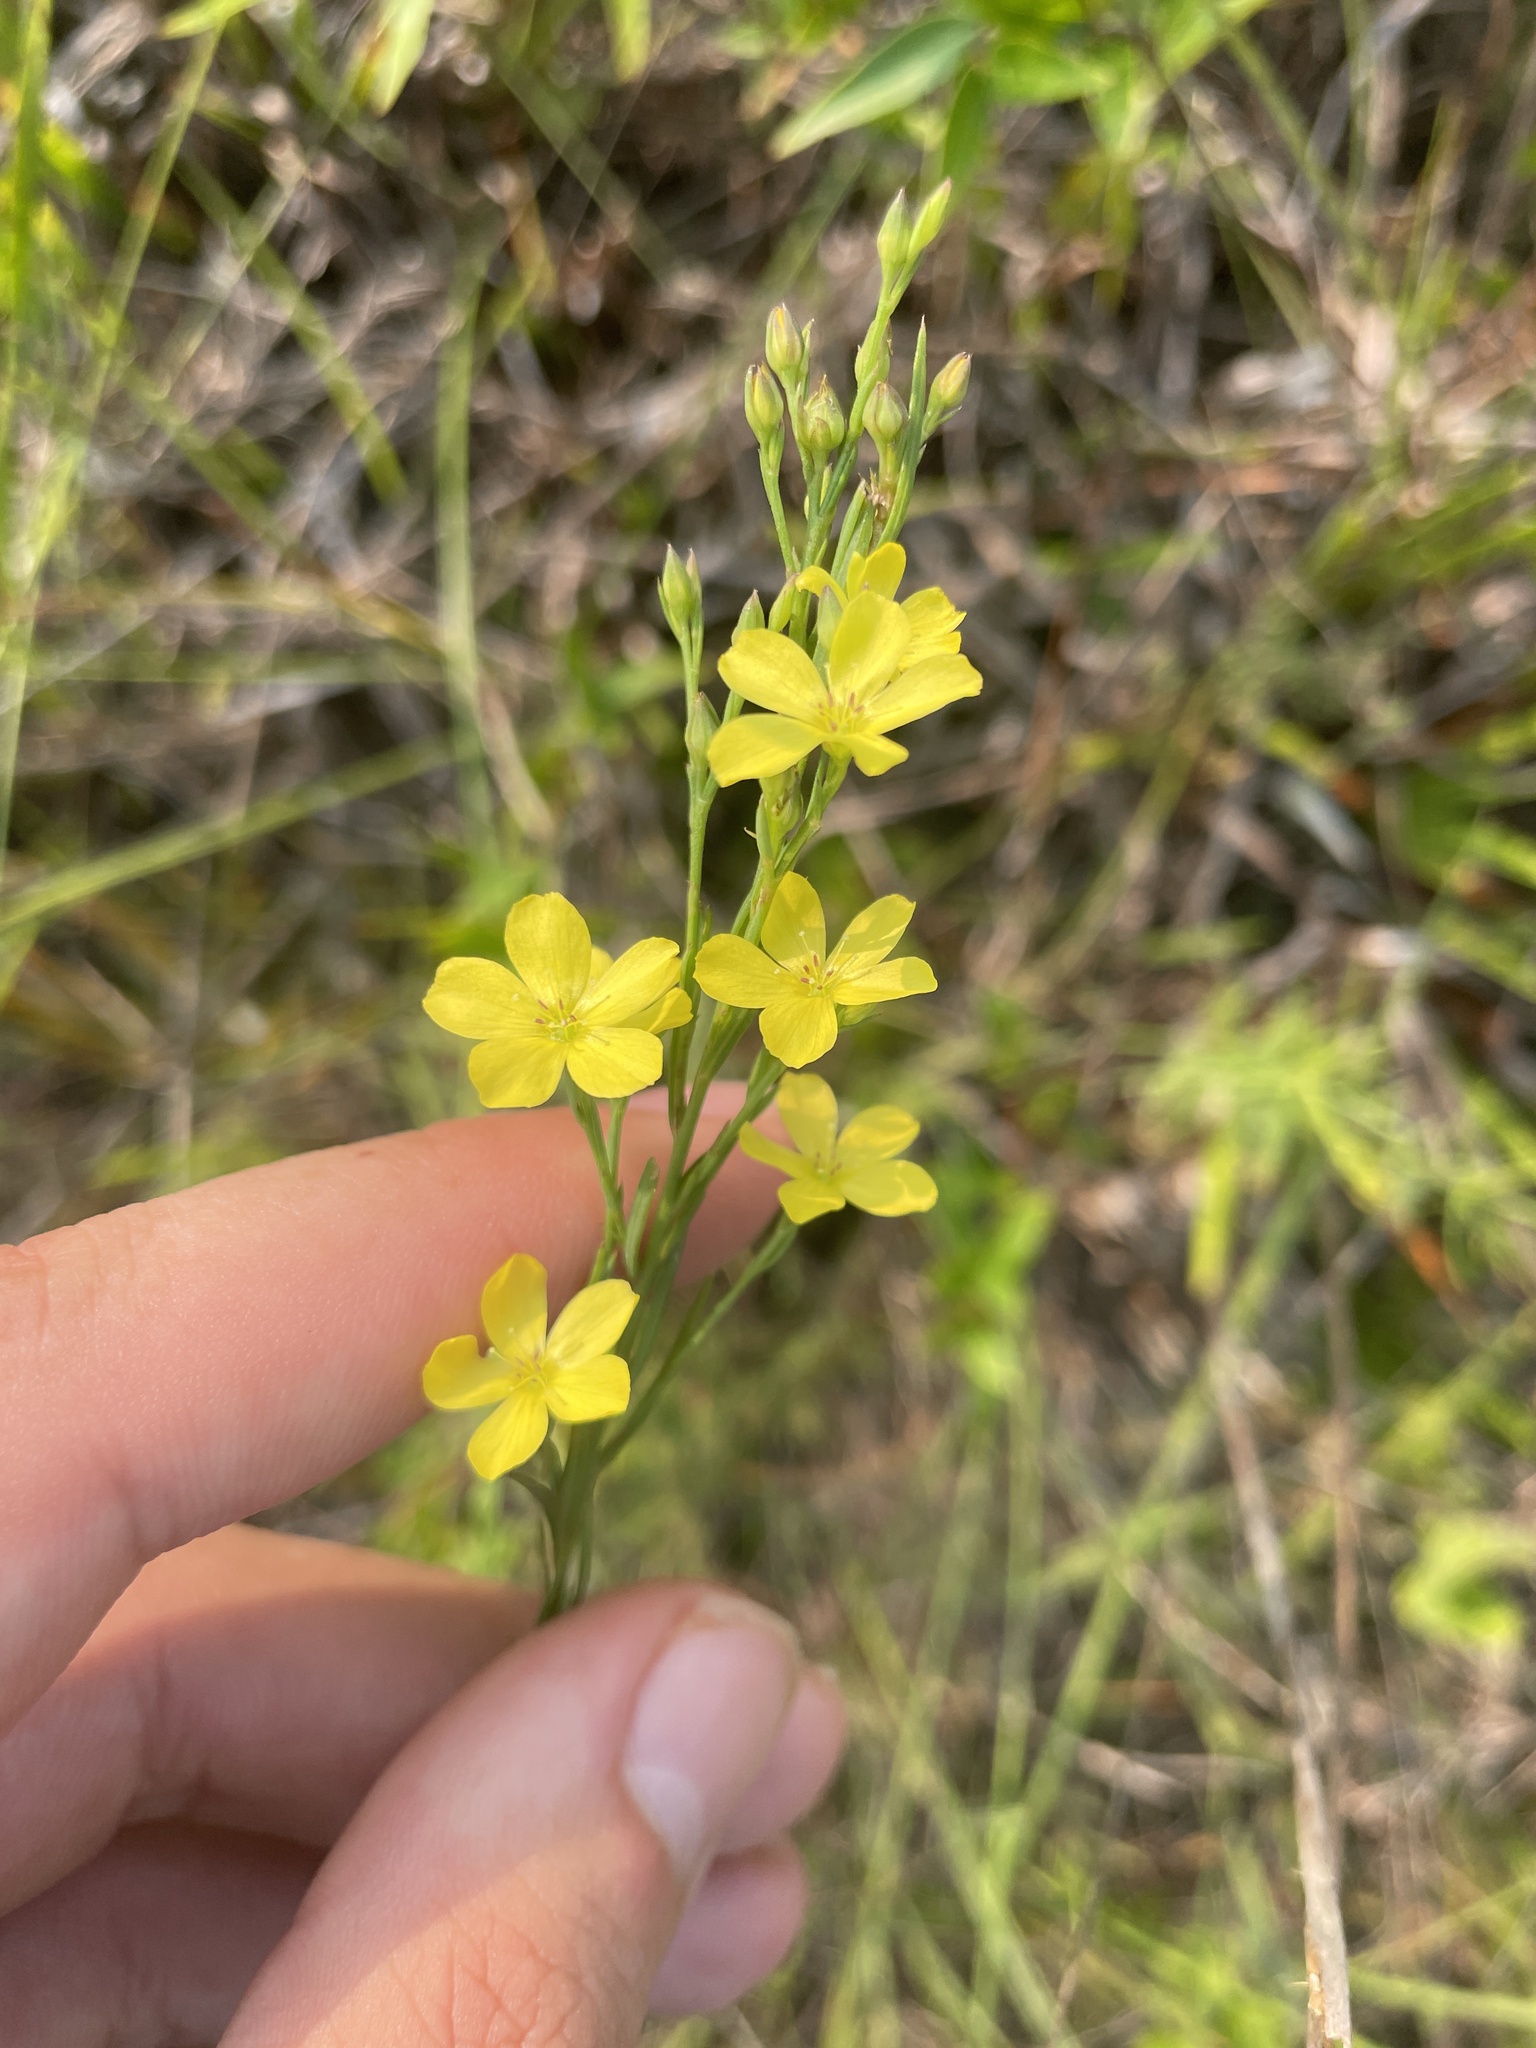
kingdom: Plantae
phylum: Tracheophyta
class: Magnoliopsida
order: Malpighiales
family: Linaceae
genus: Linum
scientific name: Linum floridanum
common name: Florida yellow flax
